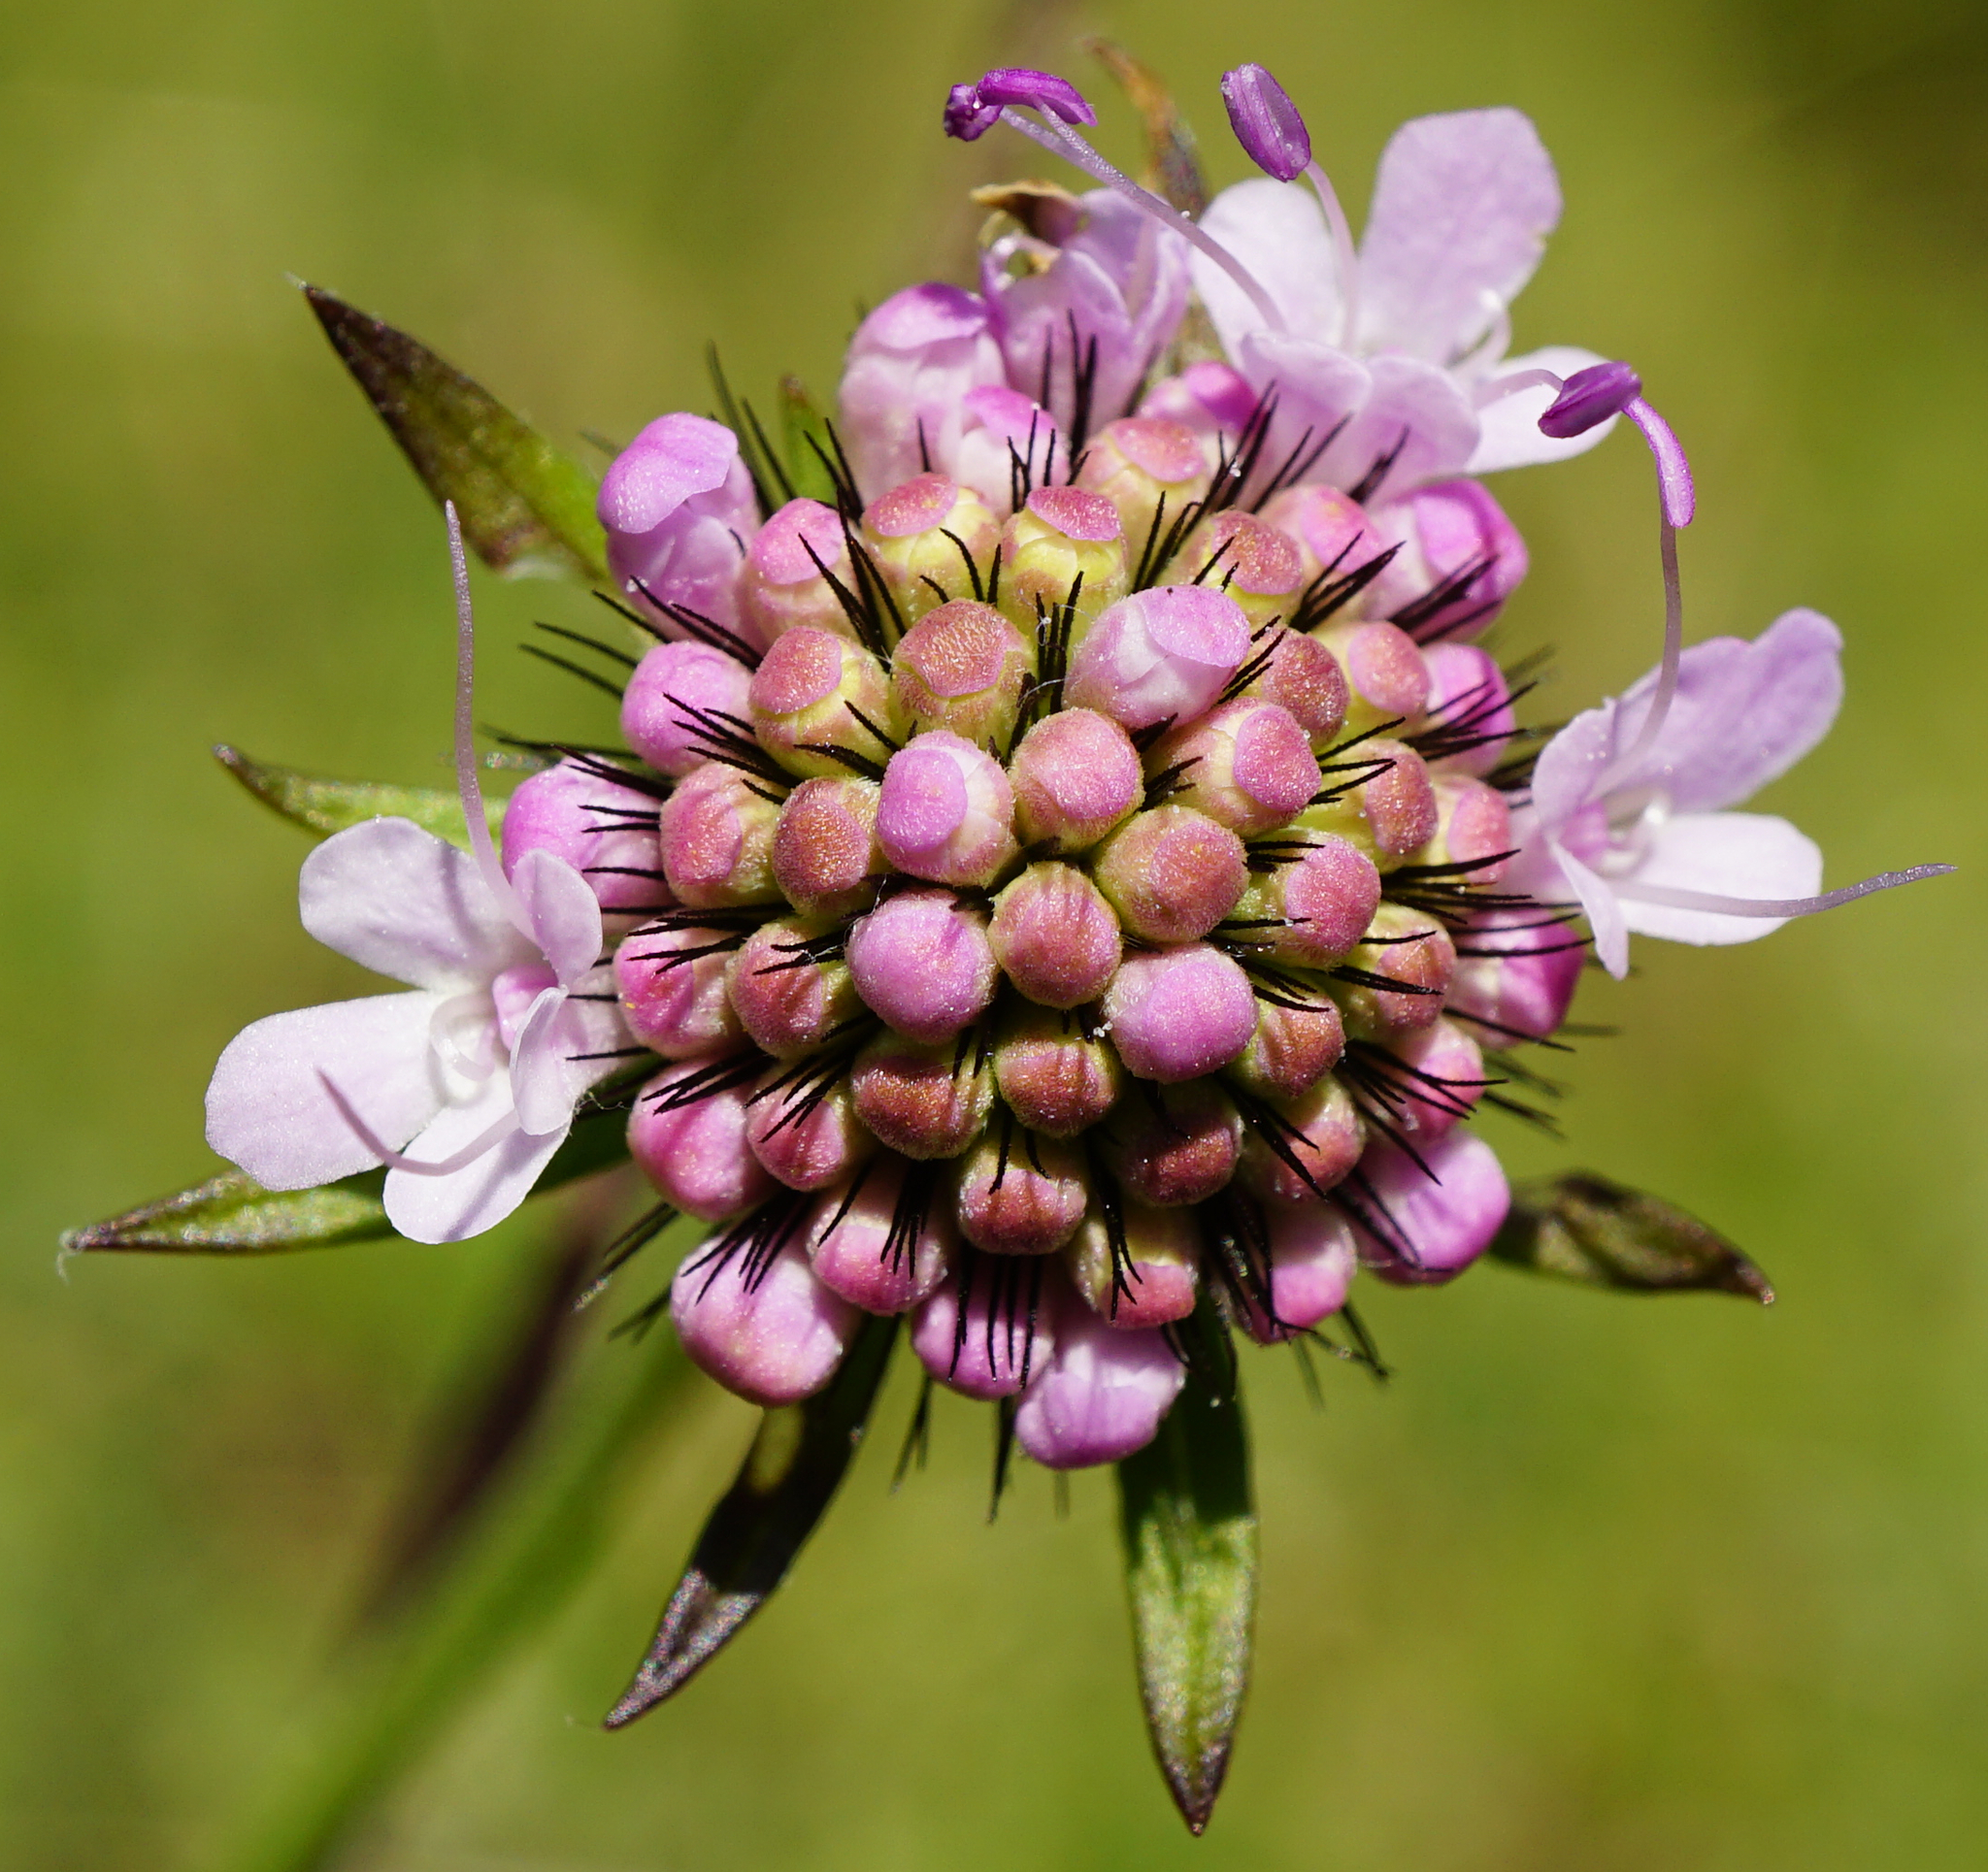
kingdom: Plantae
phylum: Tracheophyta
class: Magnoliopsida
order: Dipsacales
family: Caprifoliaceae
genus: Scabiosa
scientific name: Scabiosa lucida
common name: Shining scabious
